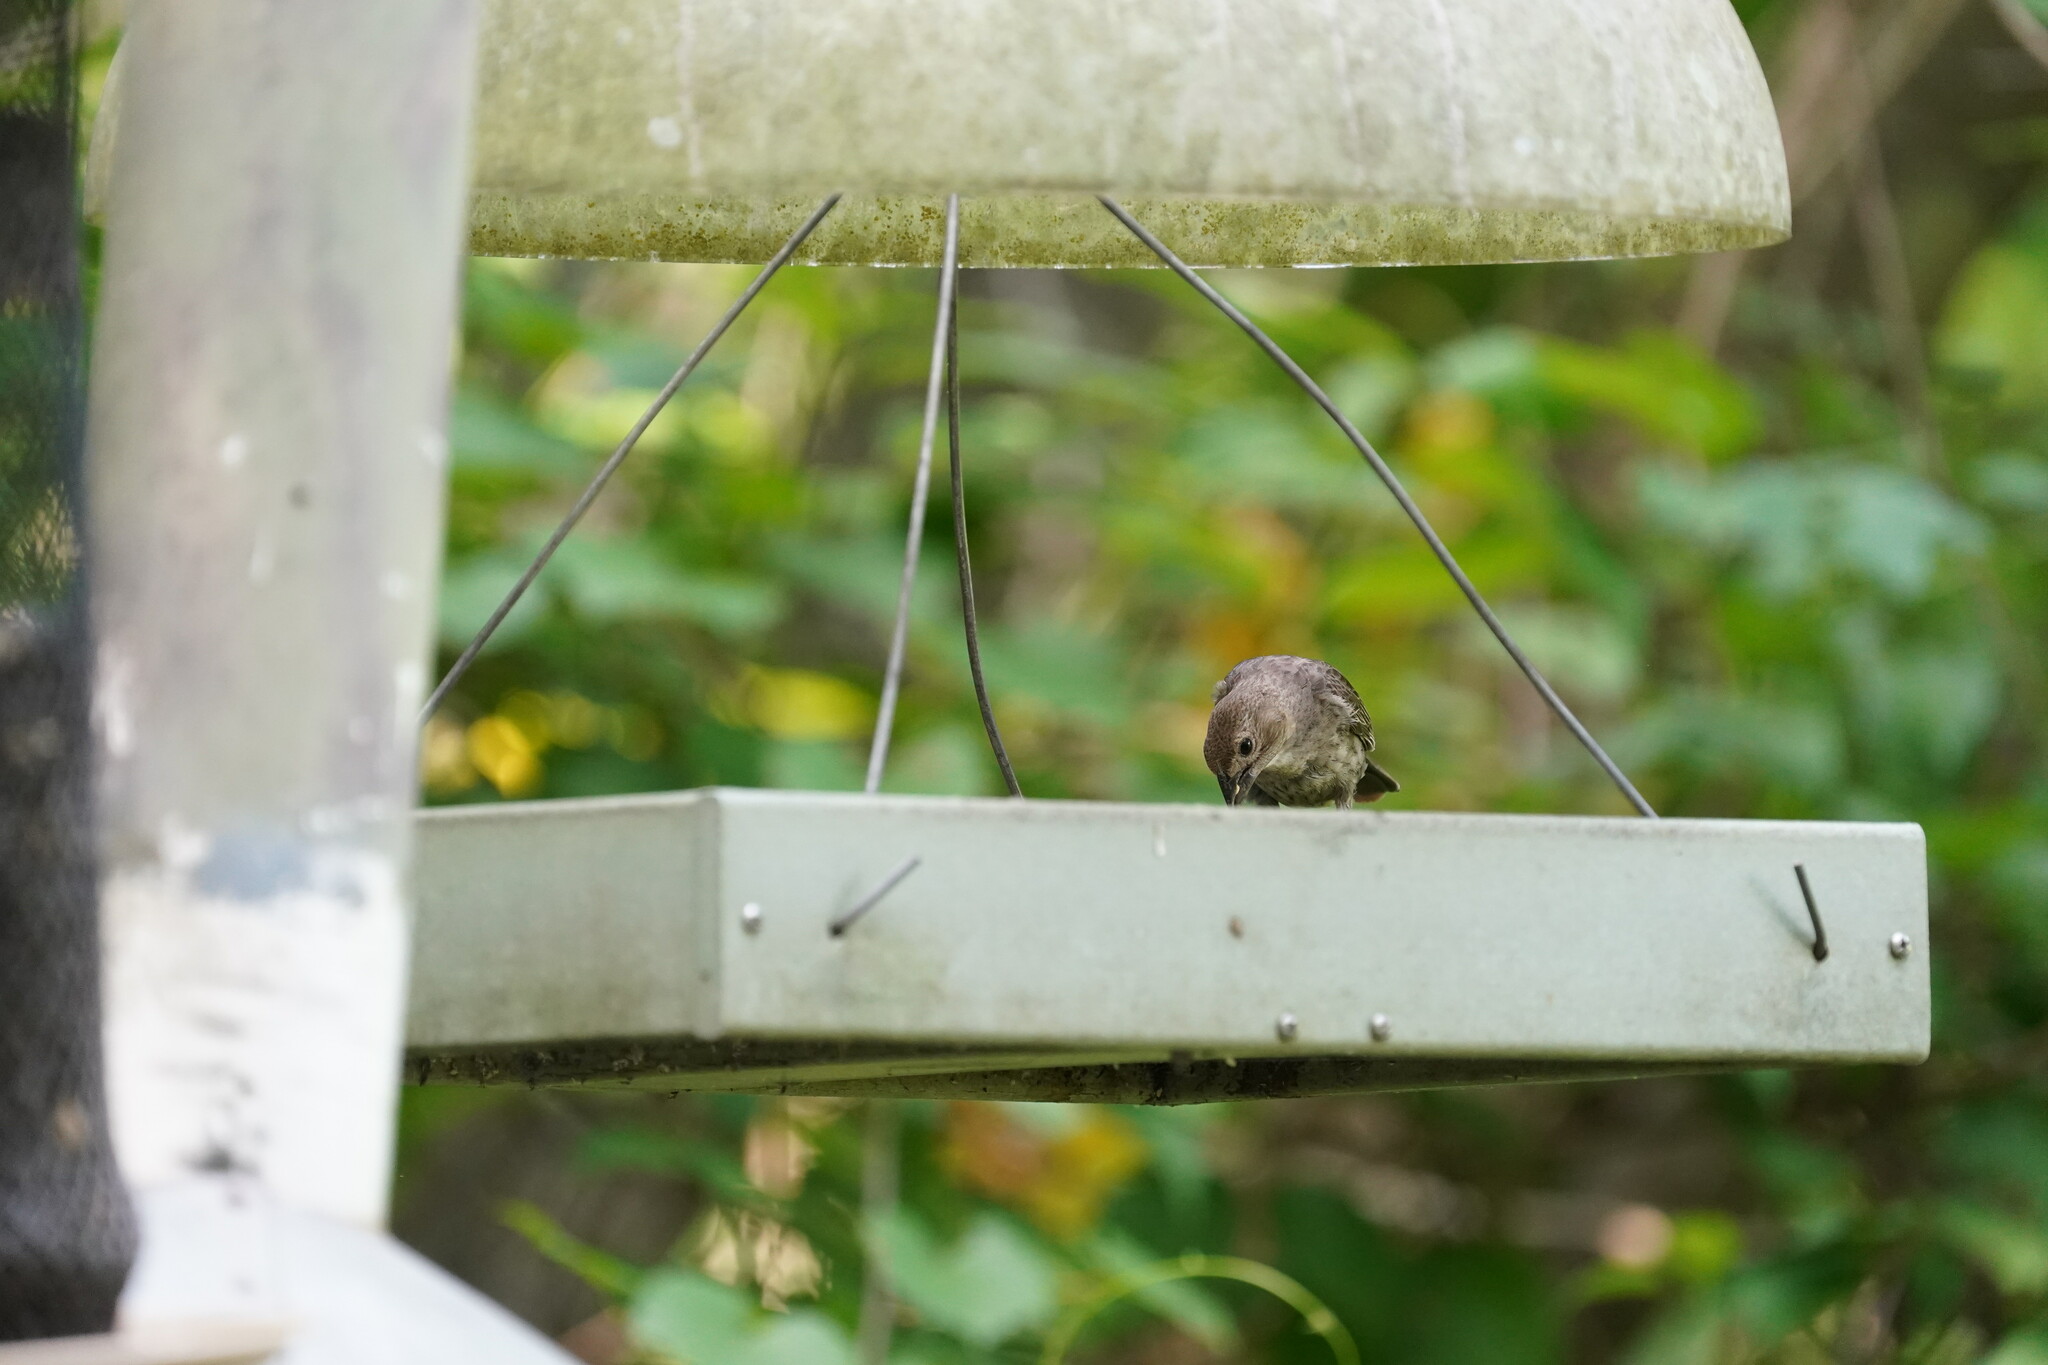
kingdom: Animalia
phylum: Chordata
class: Aves
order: Passeriformes
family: Icteridae
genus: Molothrus
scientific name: Molothrus ater
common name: Brown-headed cowbird
